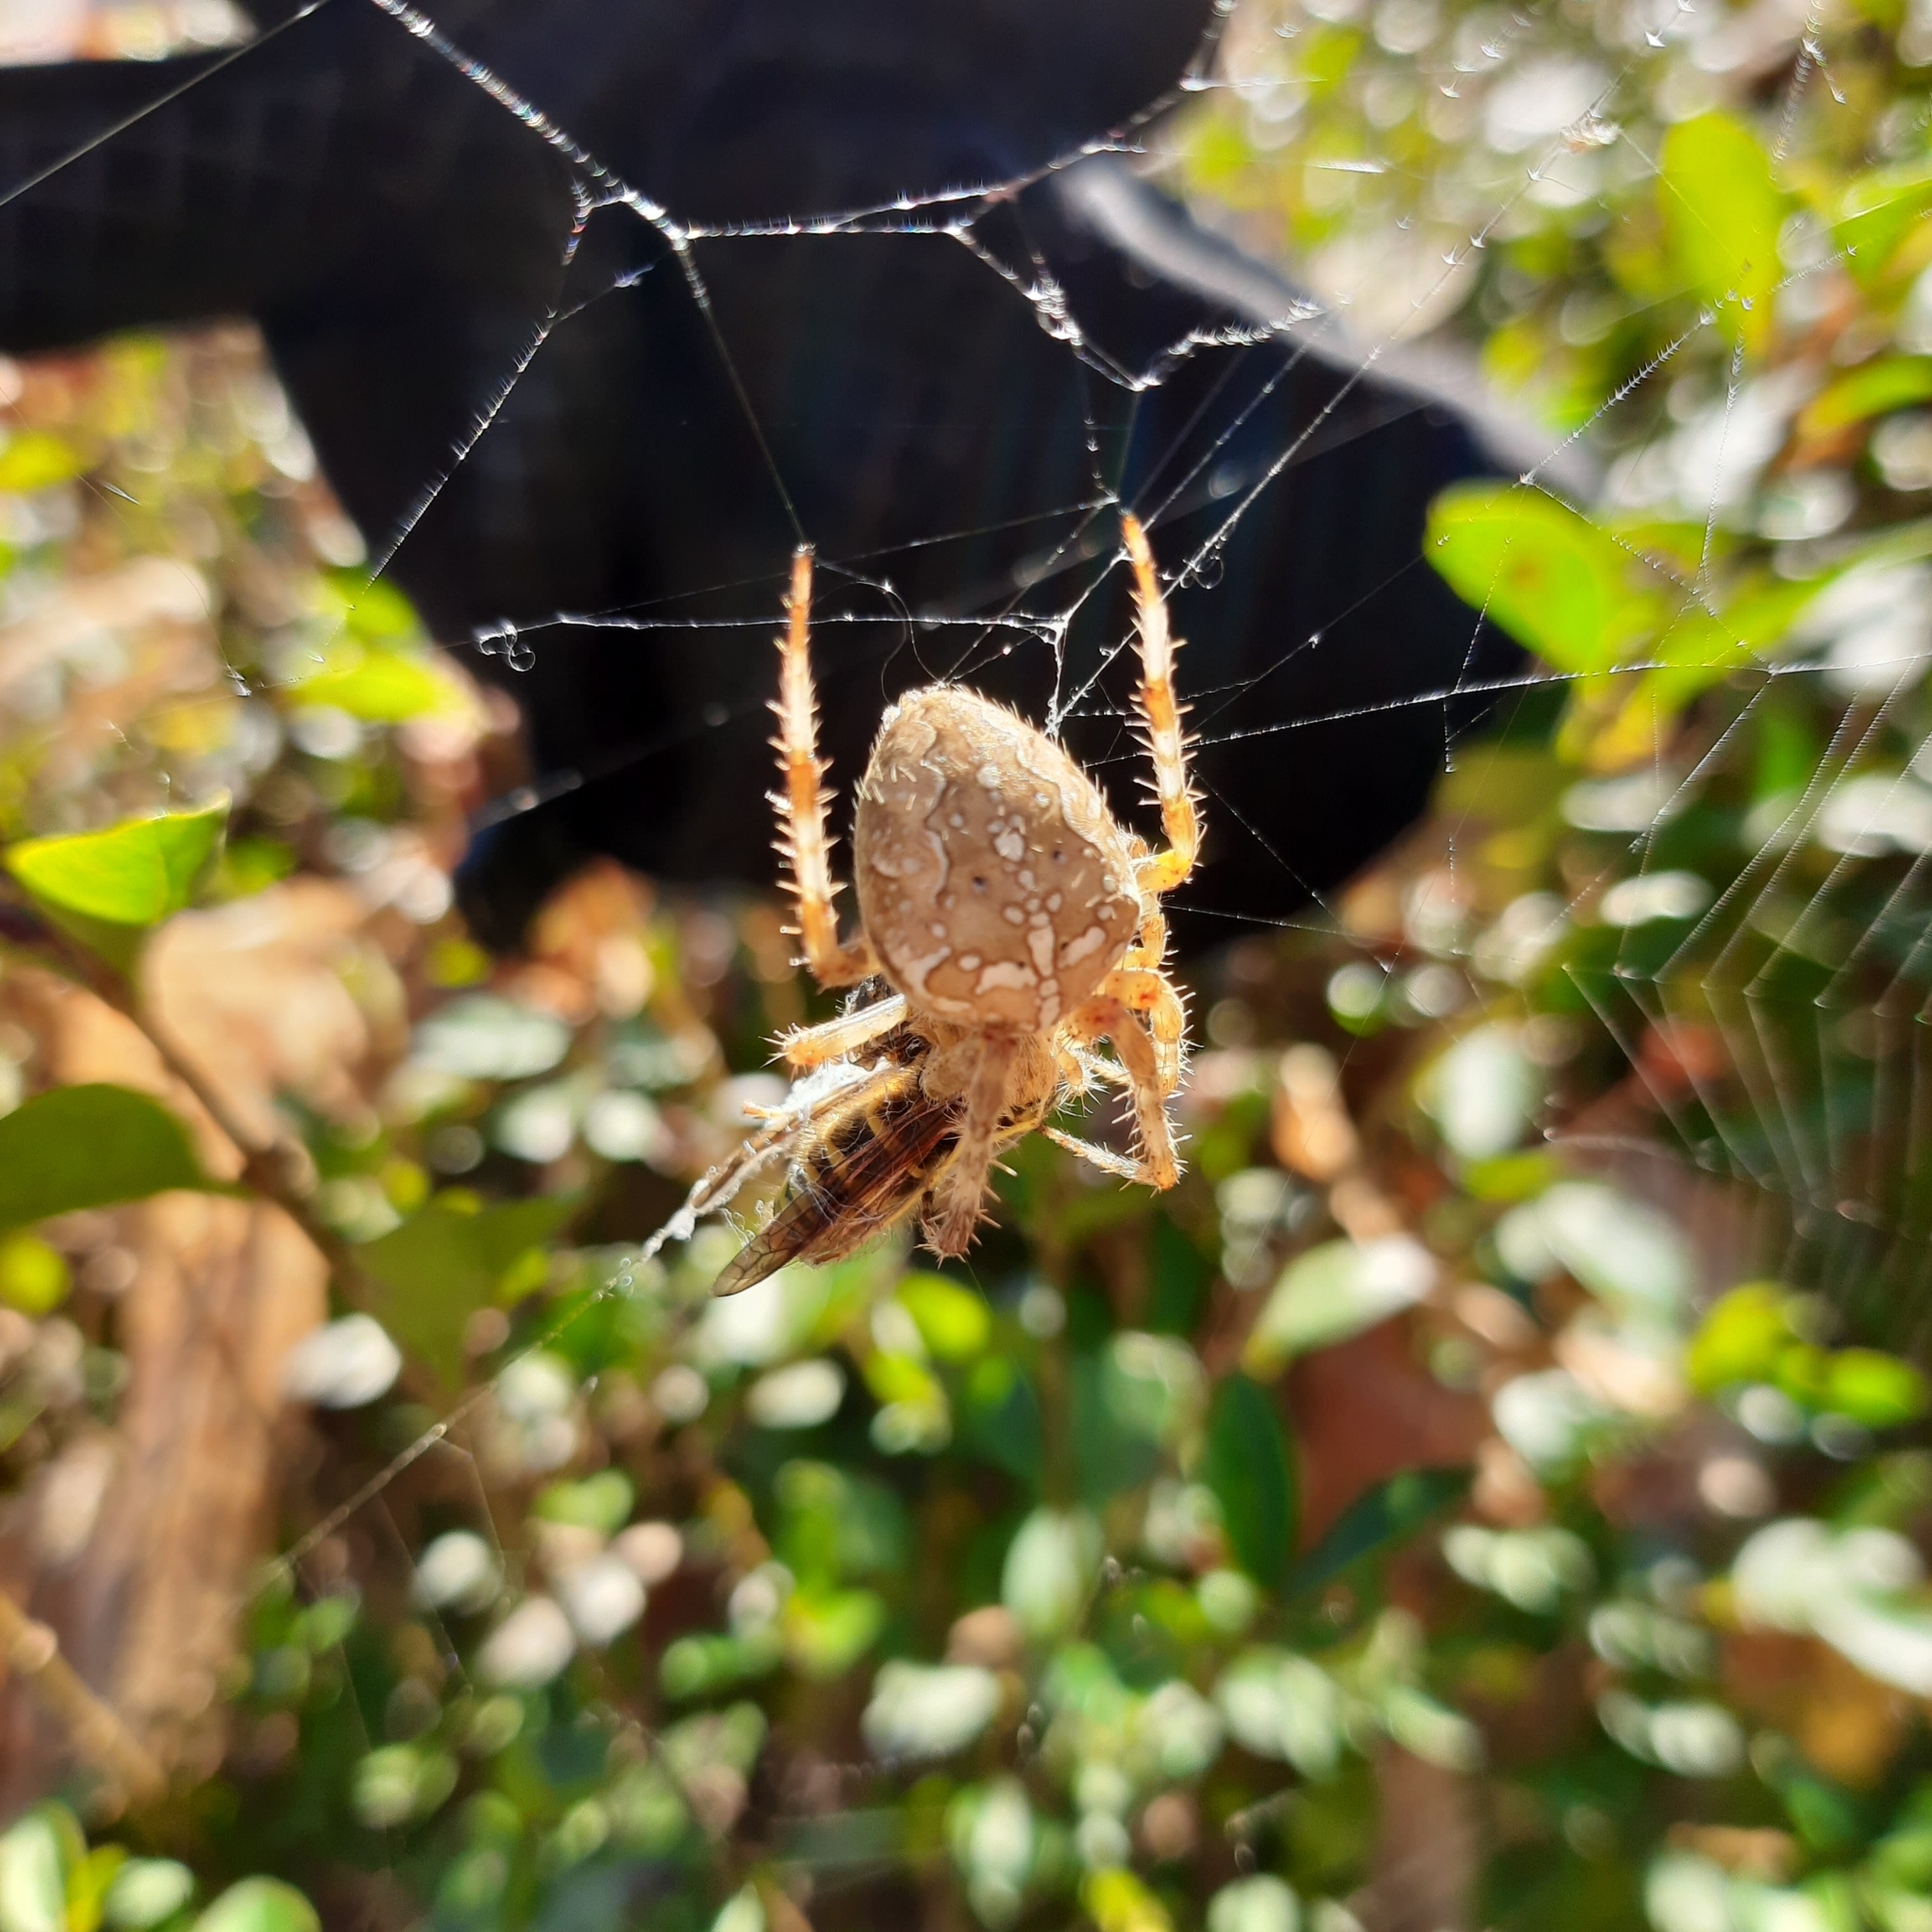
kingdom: Animalia
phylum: Arthropoda
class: Arachnida
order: Araneae
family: Araneidae
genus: Araneus
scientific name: Araneus diadematus
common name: Cross orbweaver
